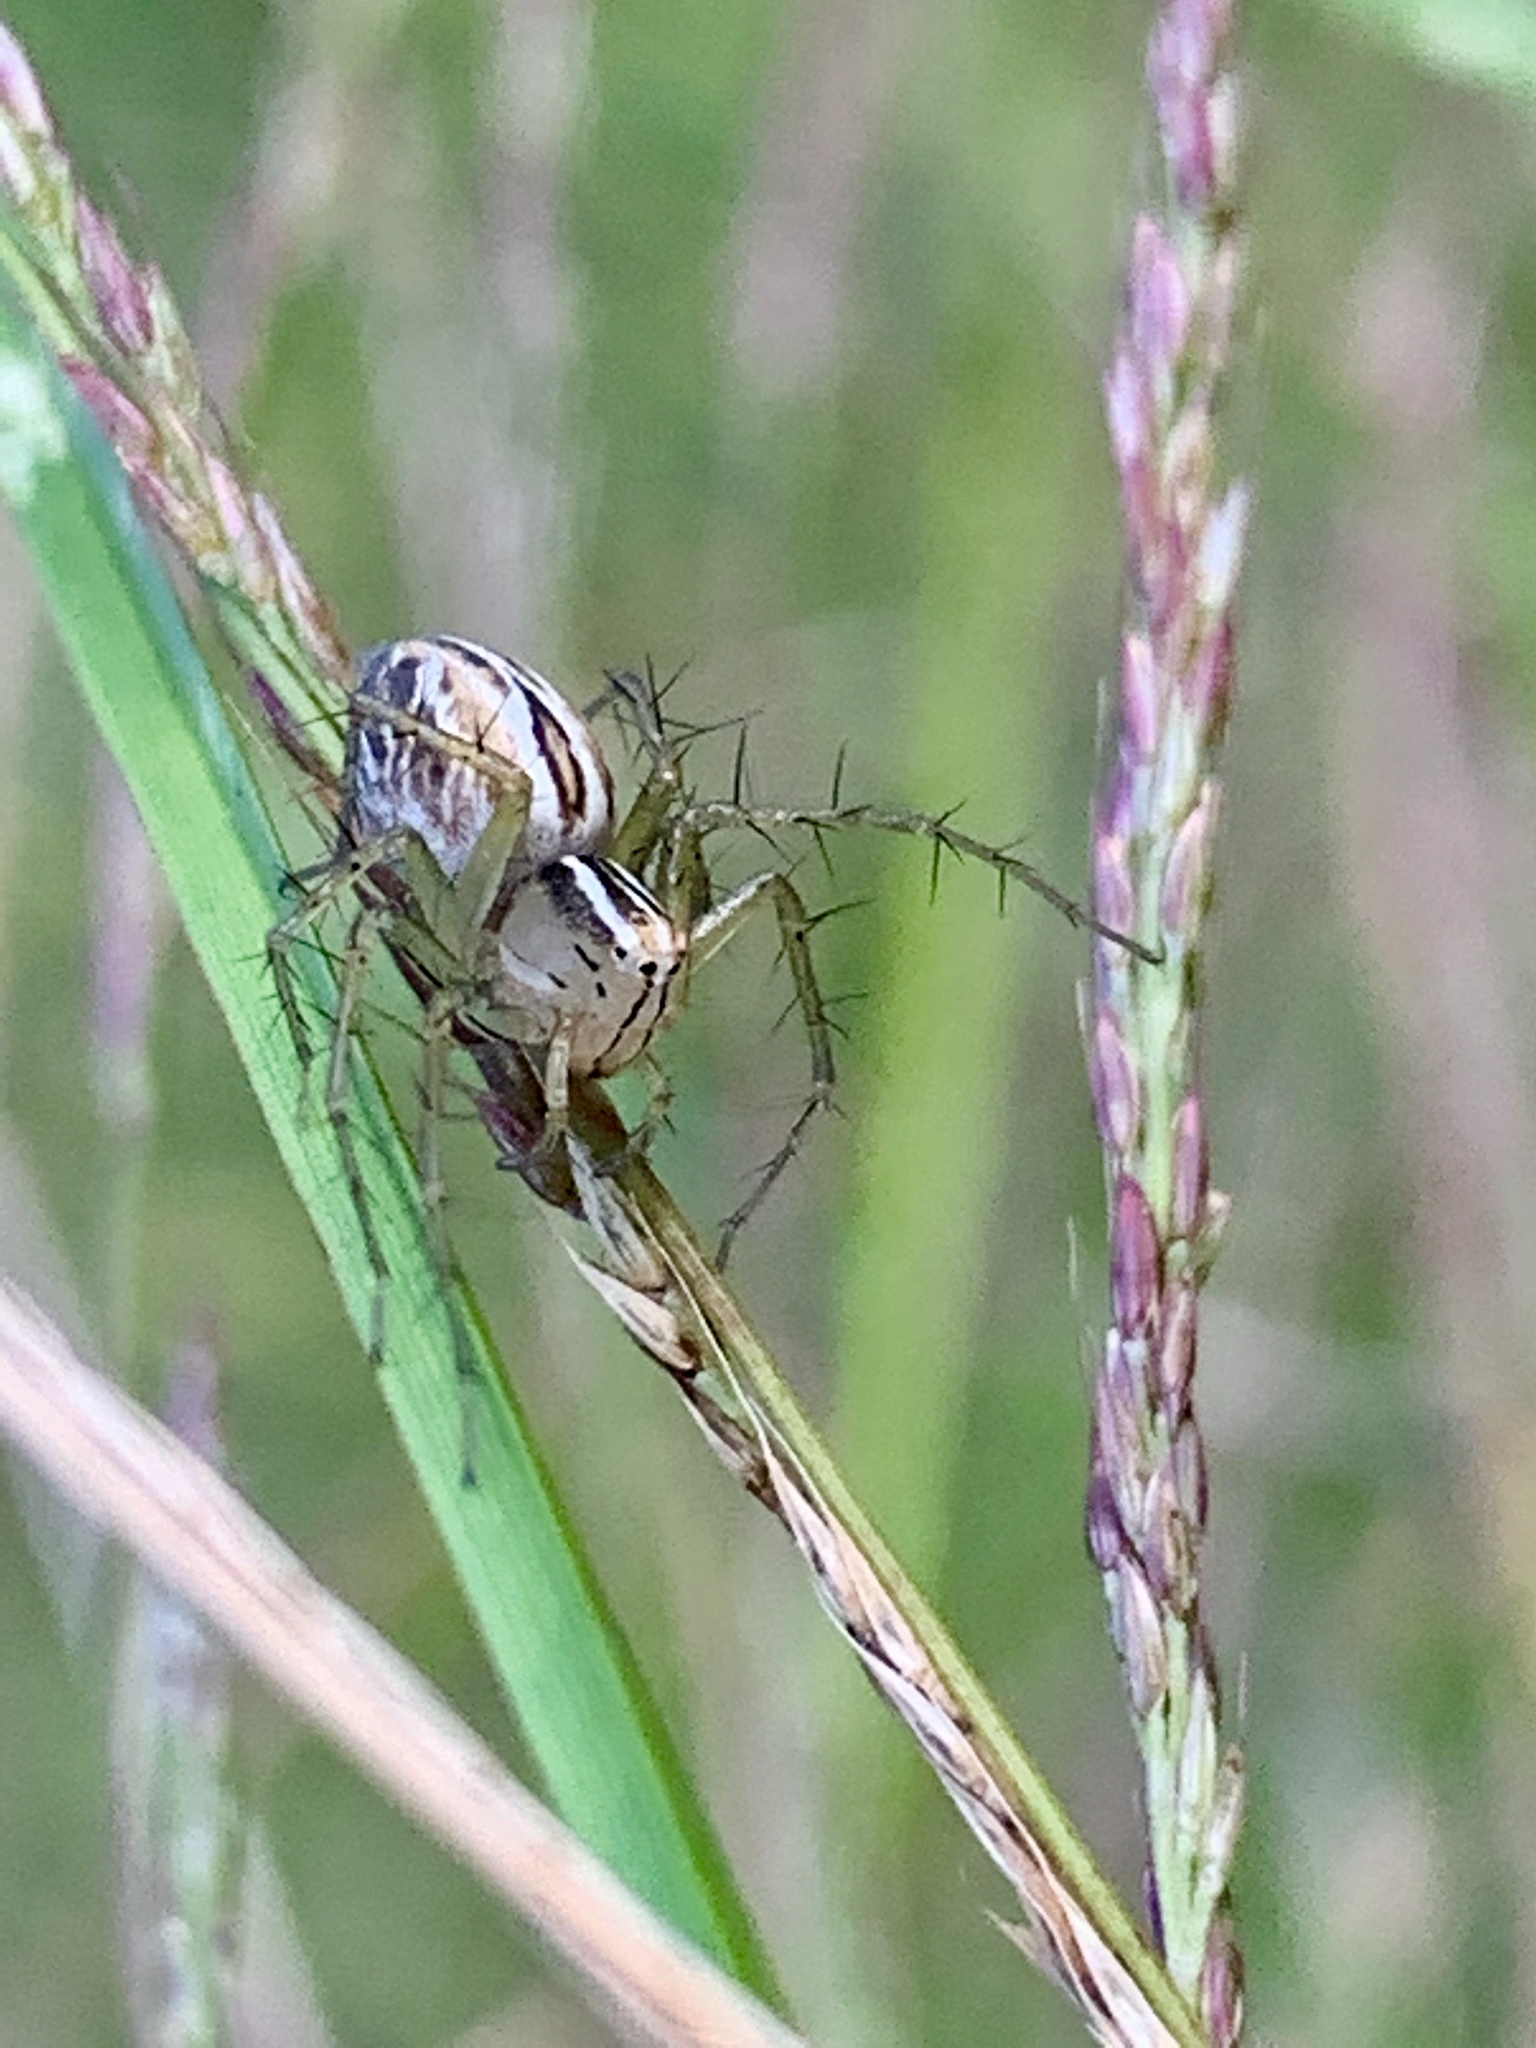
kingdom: Animalia
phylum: Arthropoda
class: Arachnida
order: Araneae
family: Oxyopidae
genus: Oxyopes
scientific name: Oxyopes salticus
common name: Lynx spiders
